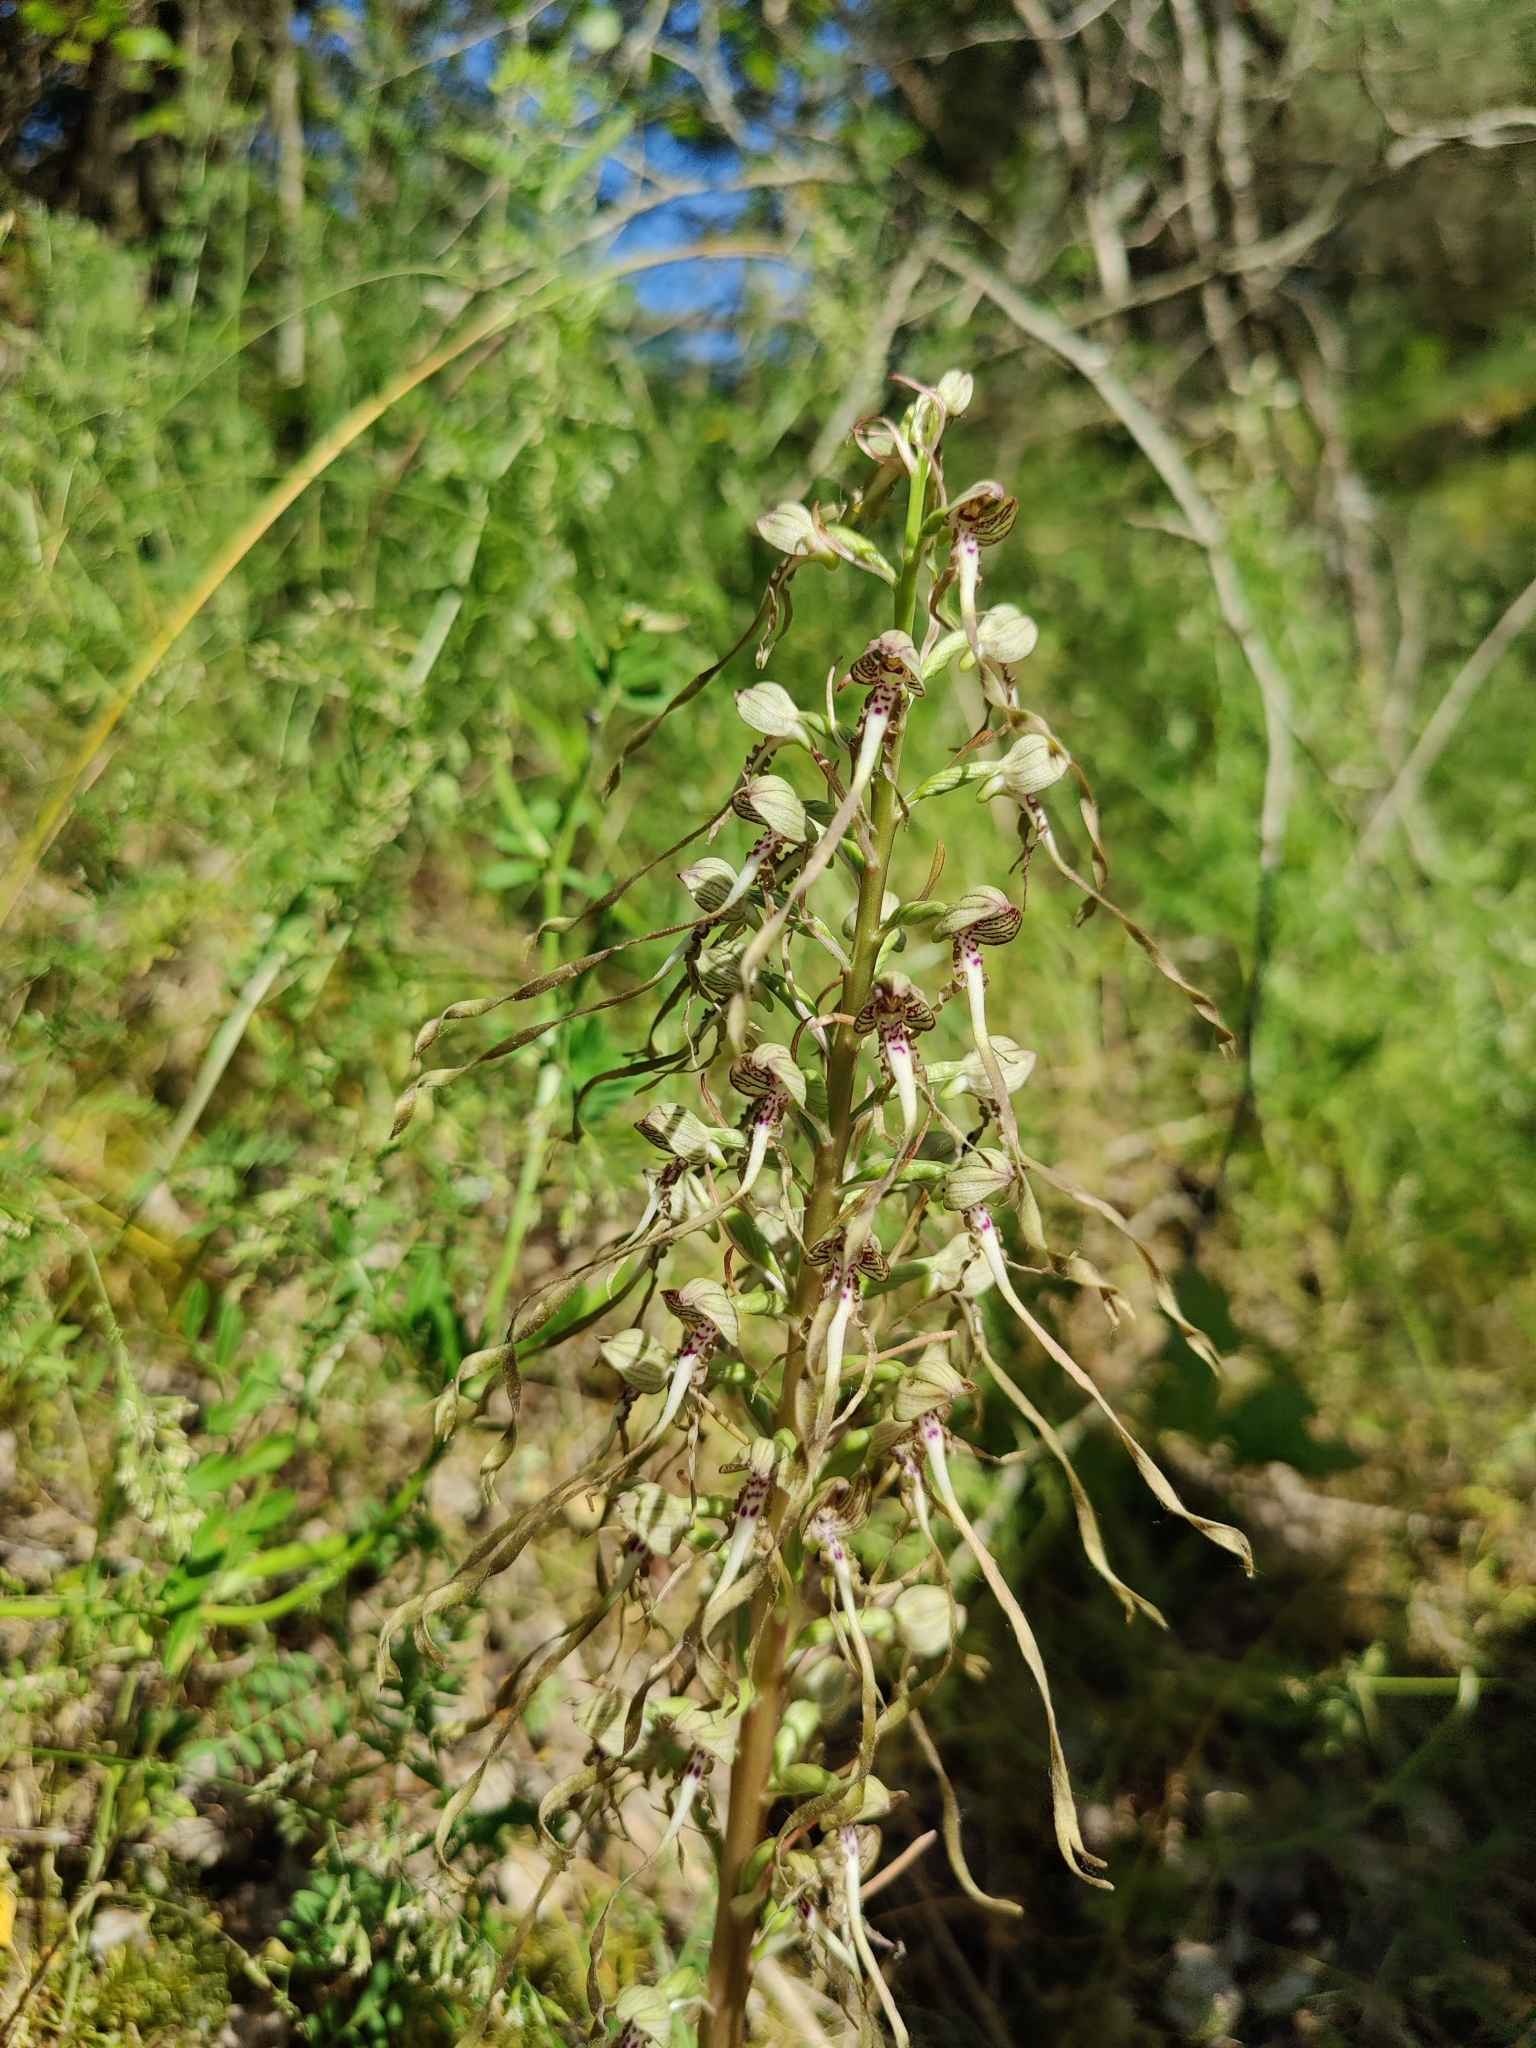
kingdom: Plantae
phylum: Tracheophyta
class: Liliopsida
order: Asparagales
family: Orchidaceae
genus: Himantoglossum
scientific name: Himantoglossum hircinum
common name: Lizard orchid
